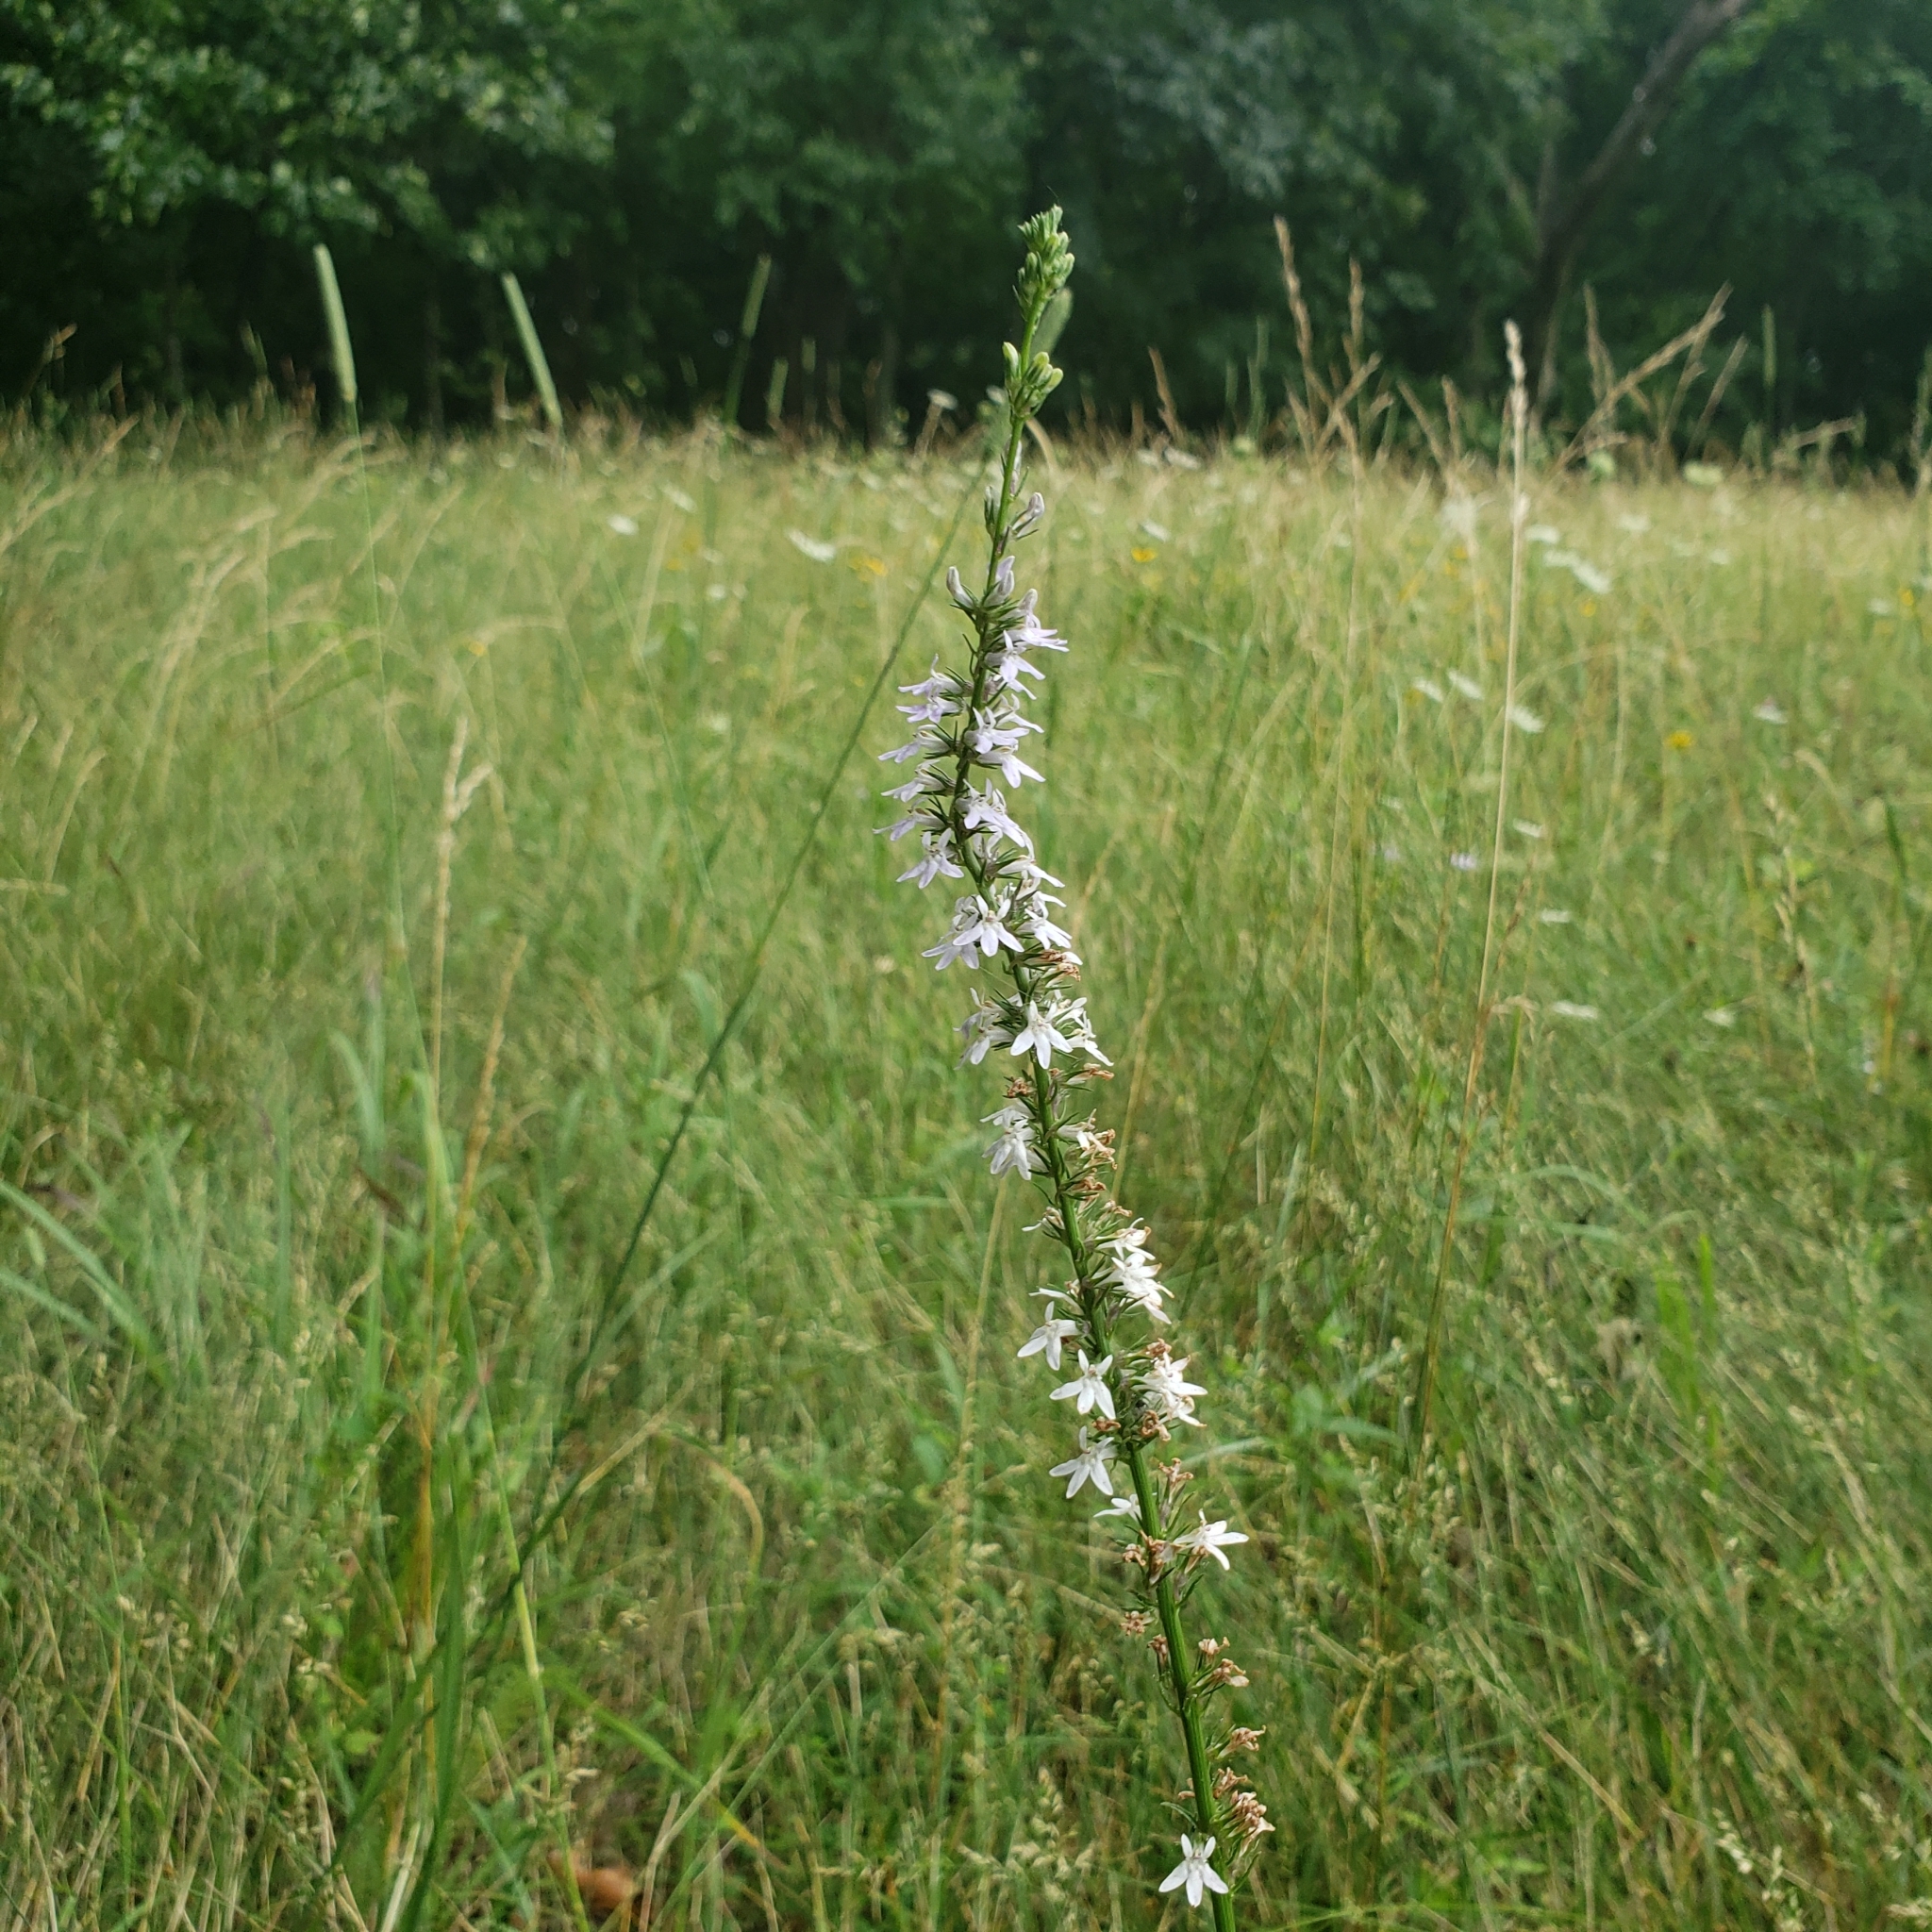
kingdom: Plantae
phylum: Tracheophyta
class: Magnoliopsida
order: Asterales
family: Campanulaceae
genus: Lobelia
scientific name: Lobelia spicata
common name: Pale-spike lobelia
